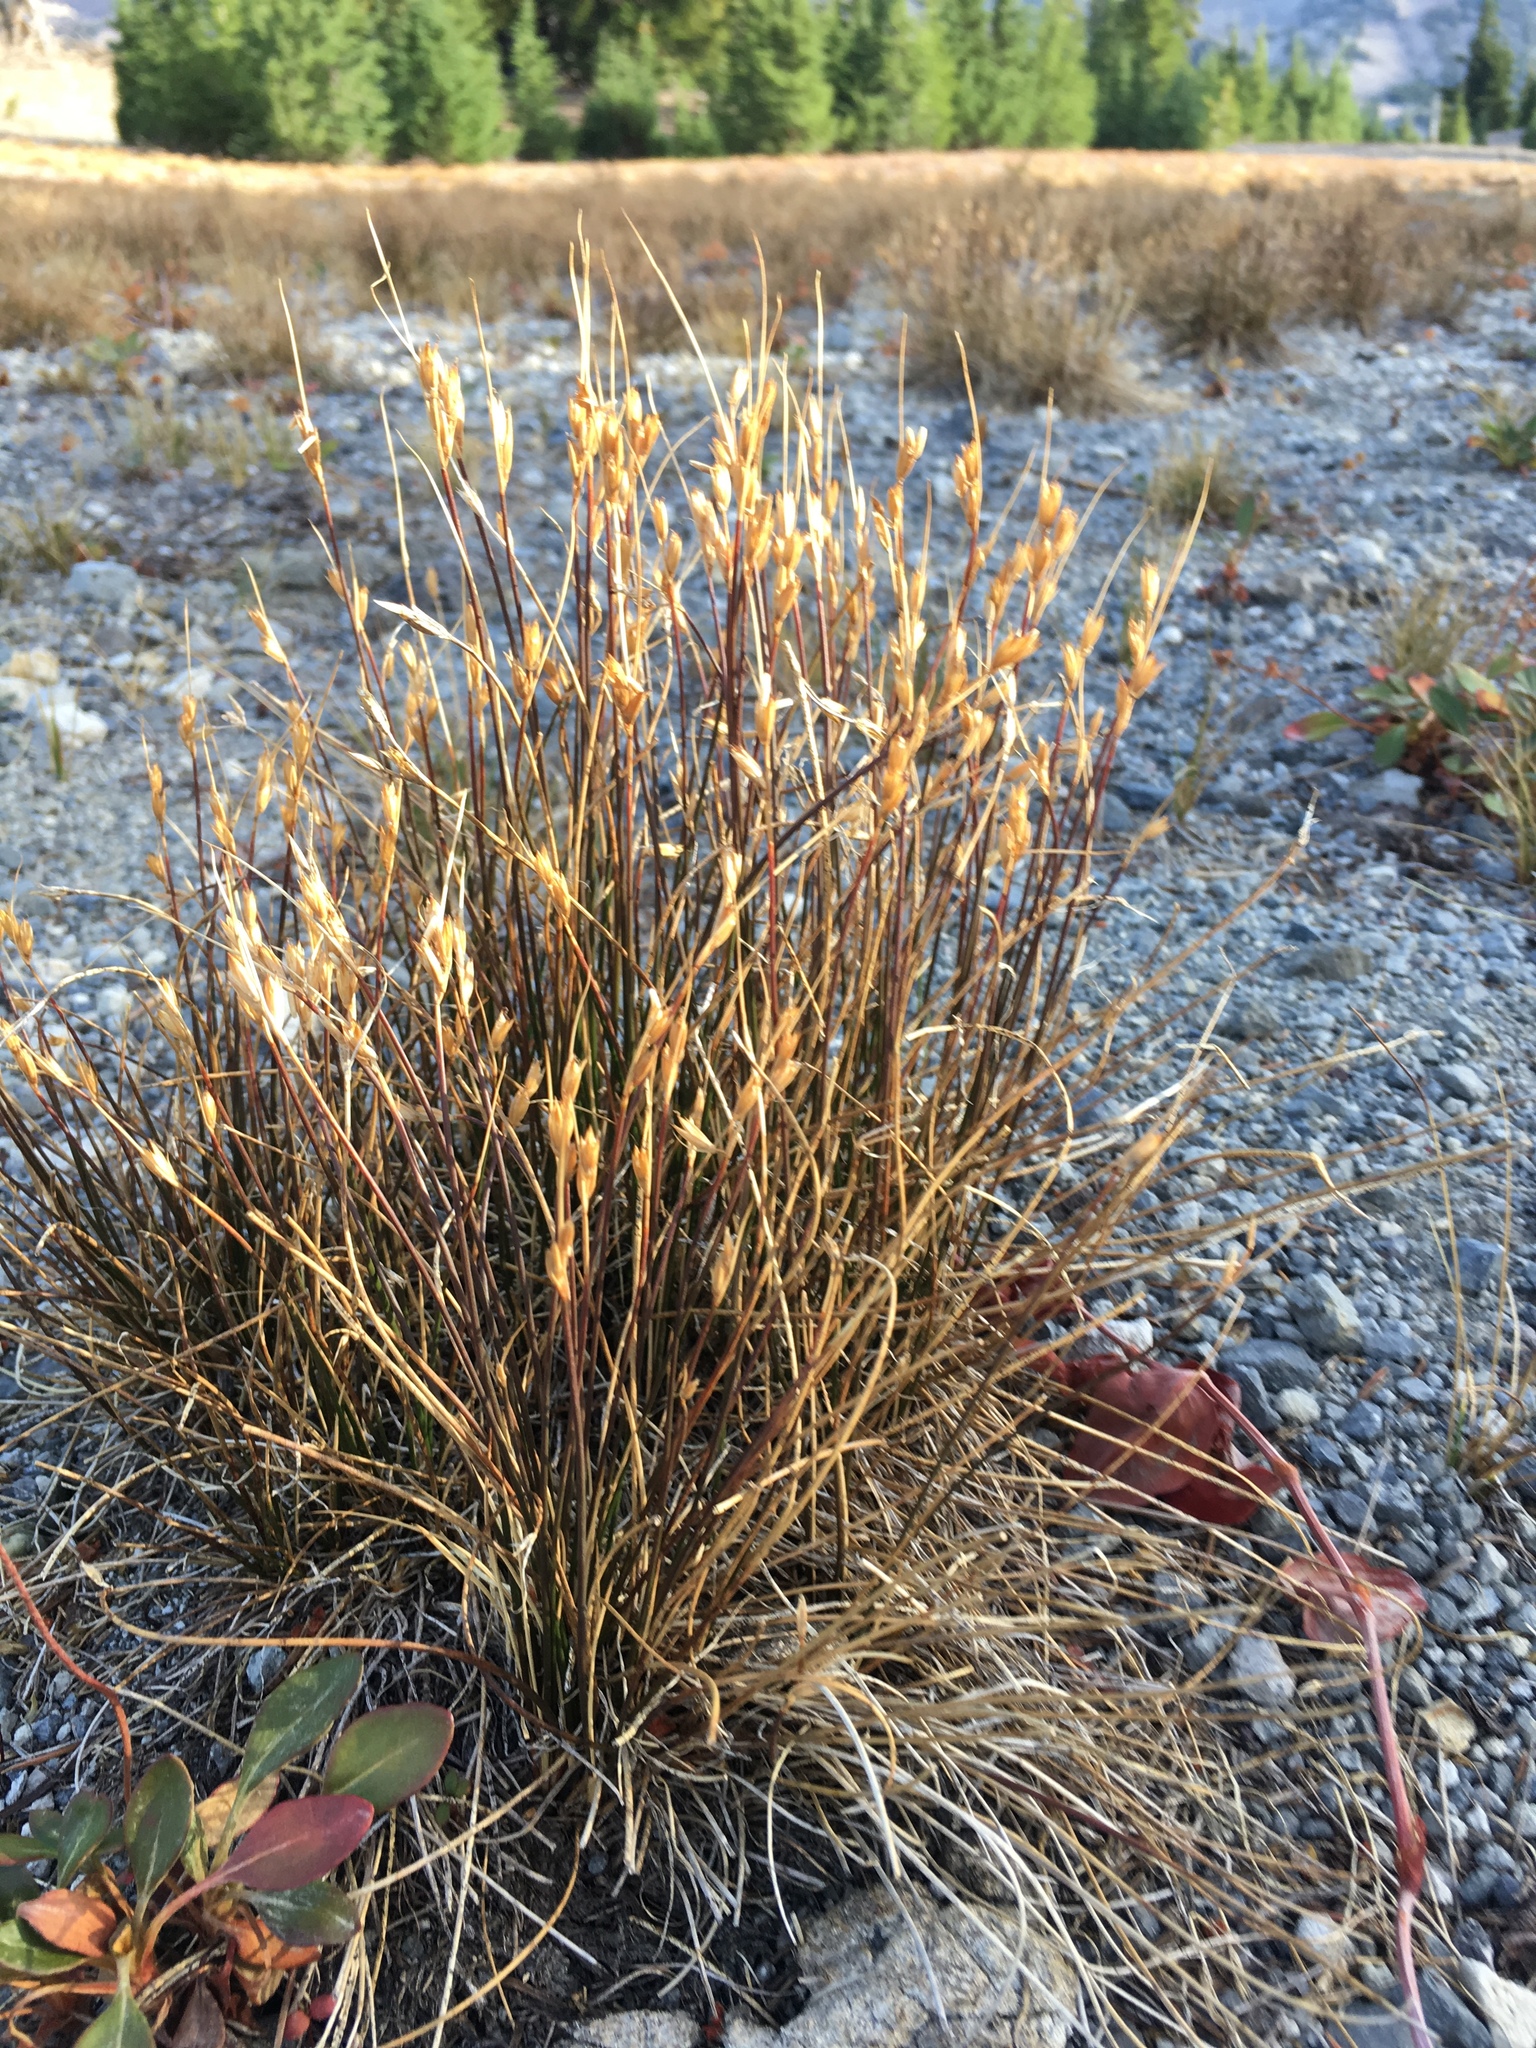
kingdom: Plantae
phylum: Tracheophyta
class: Liliopsida
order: Poales
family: Juncaceae
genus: Juncus
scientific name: Juncus parryi
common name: Parry's rush
